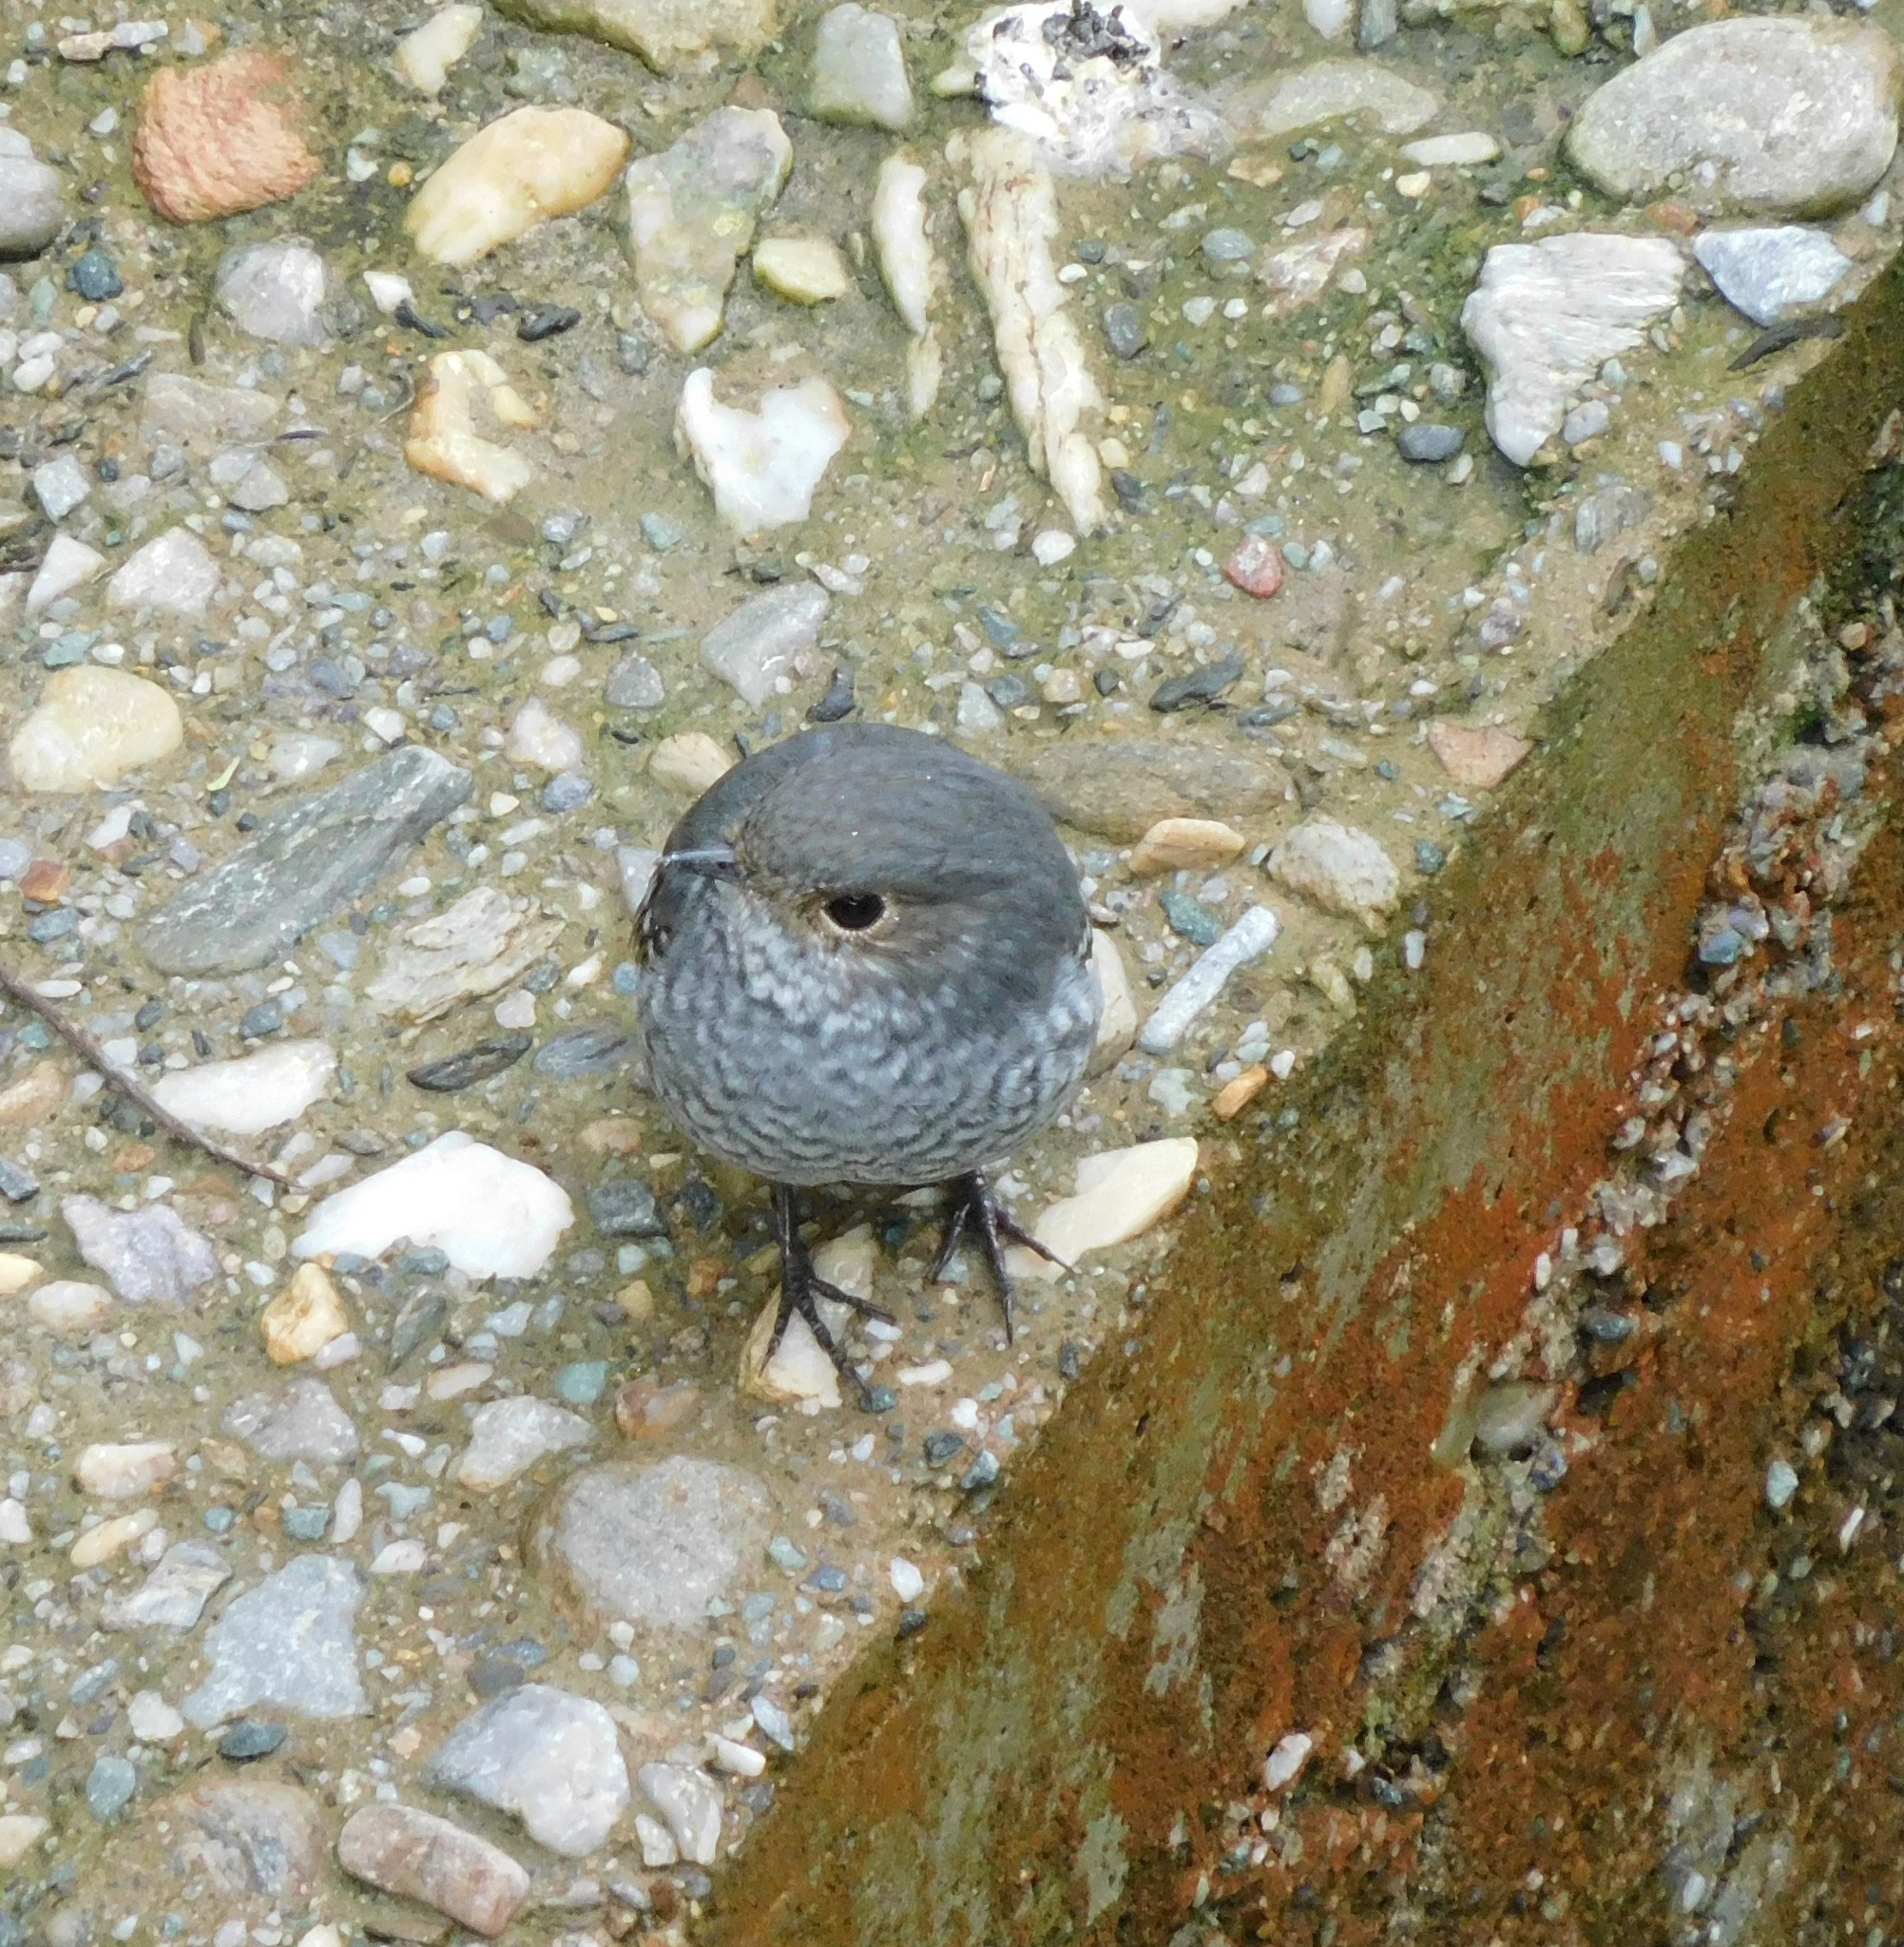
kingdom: Animalia
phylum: Chordata
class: Aves
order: Passeriformes
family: Muscicapidae
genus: Phoenicurus
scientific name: Phoenicurus fuliginosus
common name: Plumbeous water redstart
